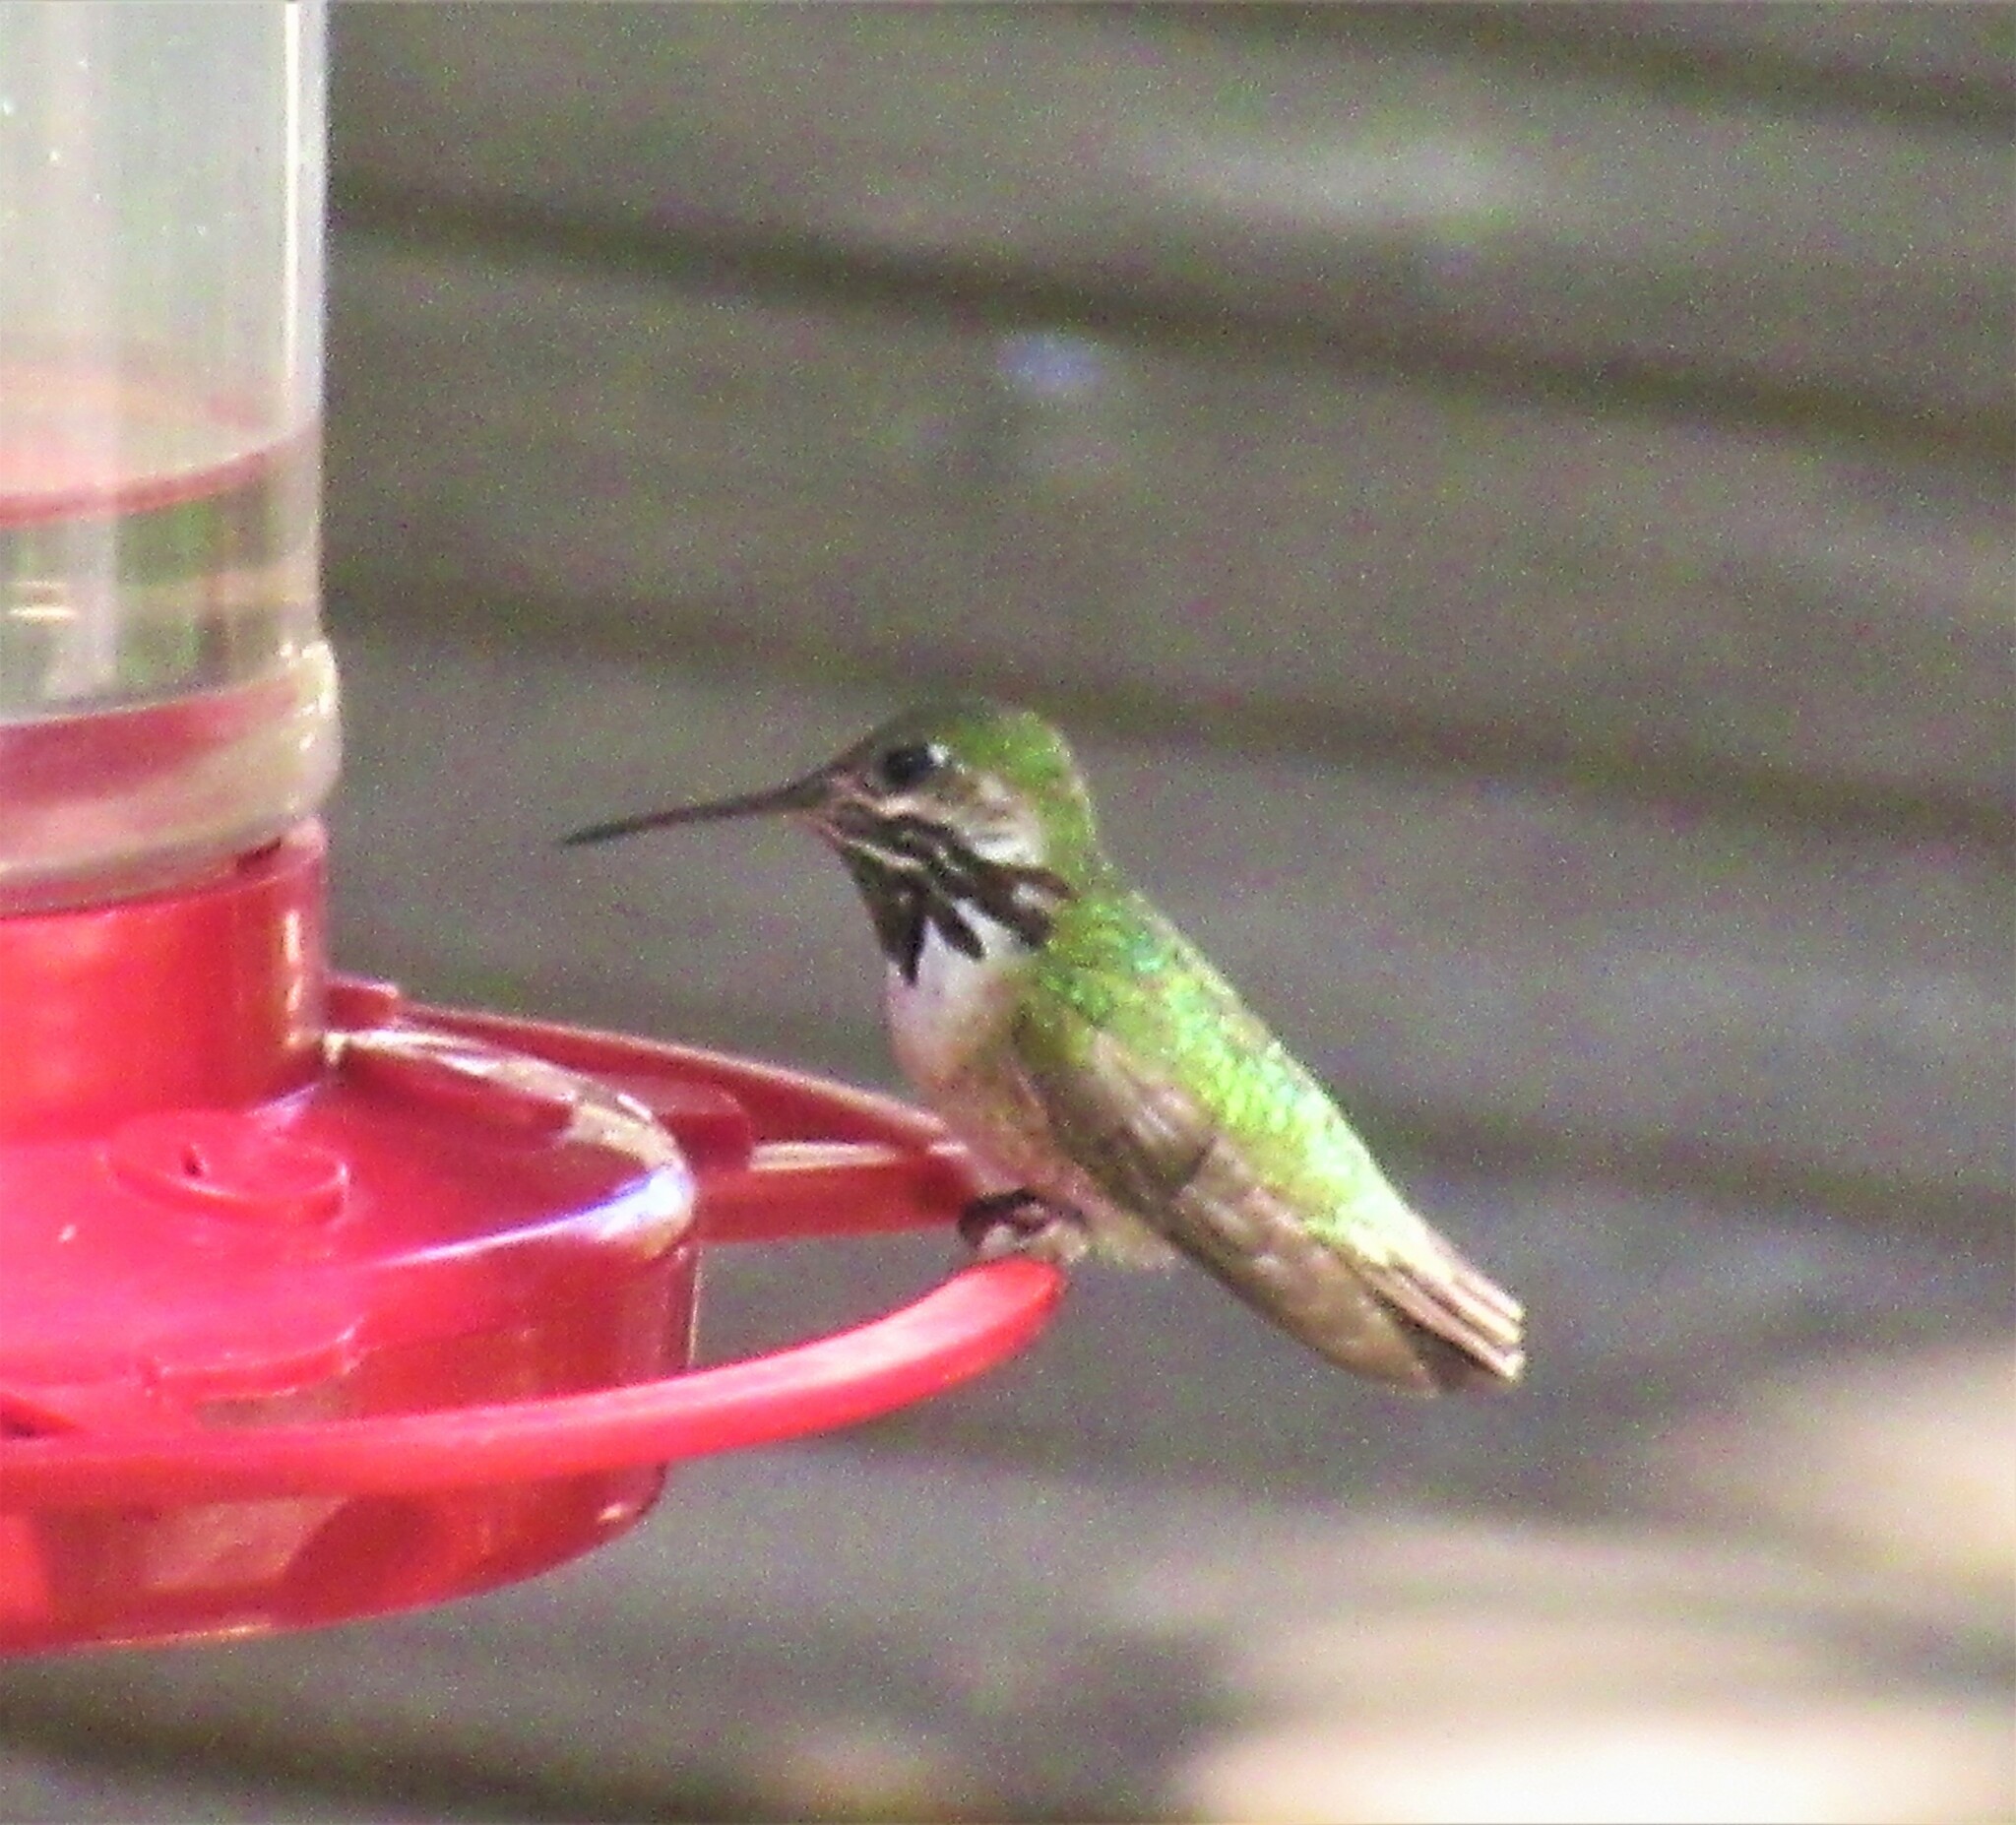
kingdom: Animalia
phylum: Chordata
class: Aves
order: Apodiformes
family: Trochilidae
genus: Selasphorus
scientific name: Selasphorus calliope
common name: Calliope hummingbird
